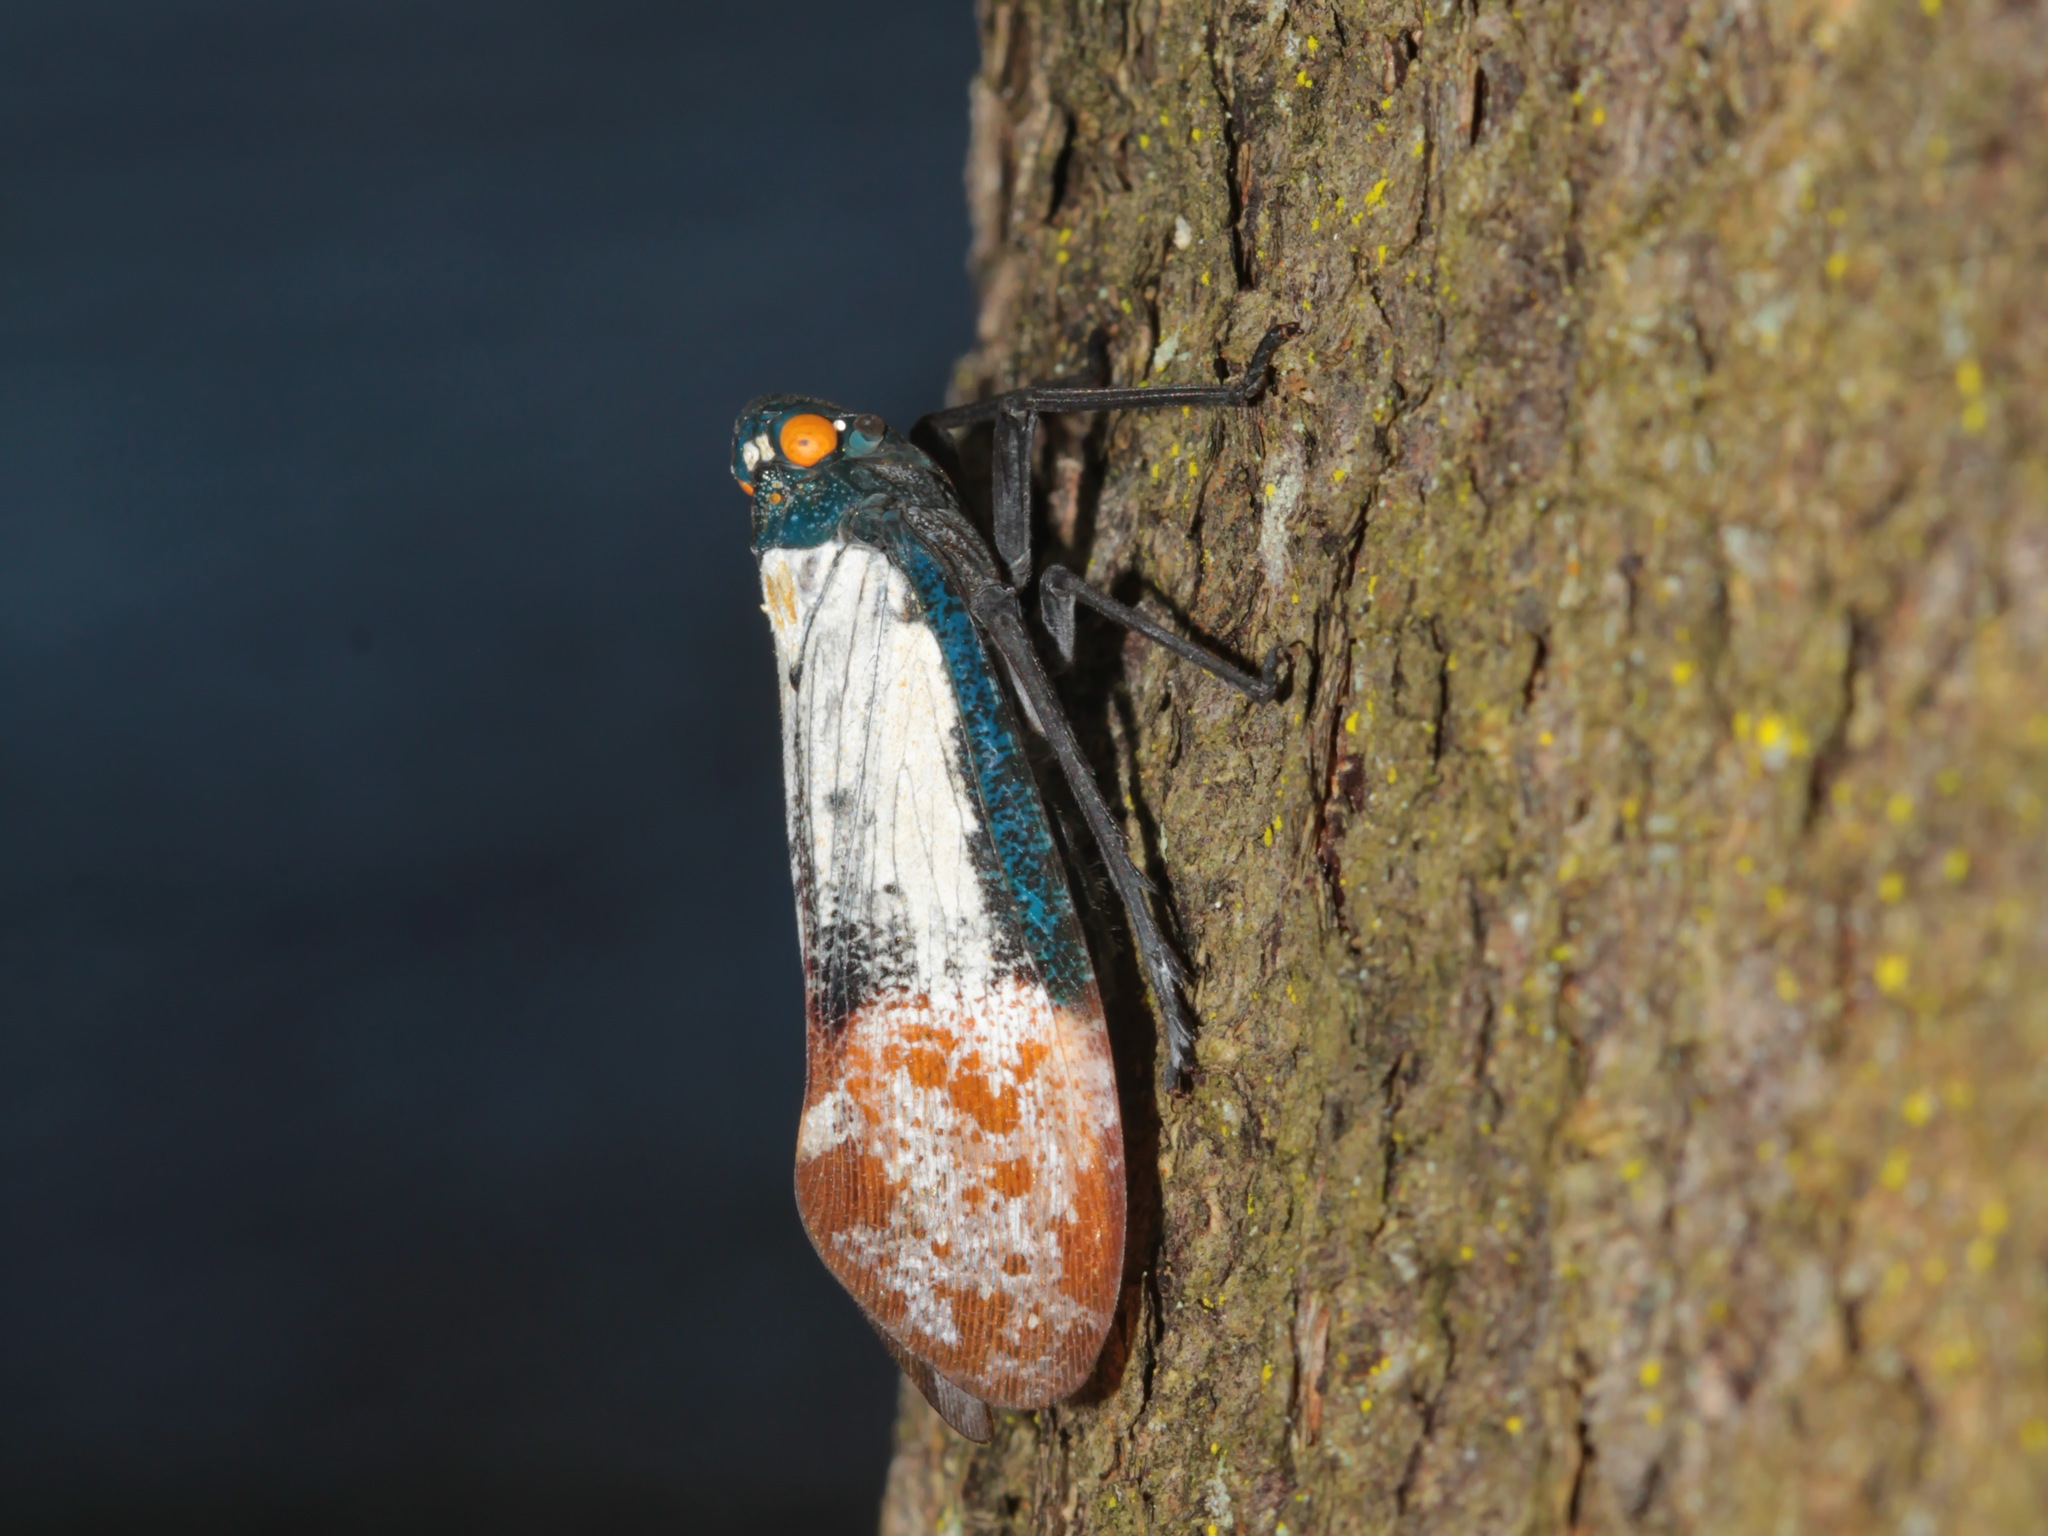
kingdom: Animalia
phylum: Arthropoda
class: Insecta
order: Hemiptera
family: Fulgoridae
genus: Penthicodes
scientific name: Penthicodes farinosa
